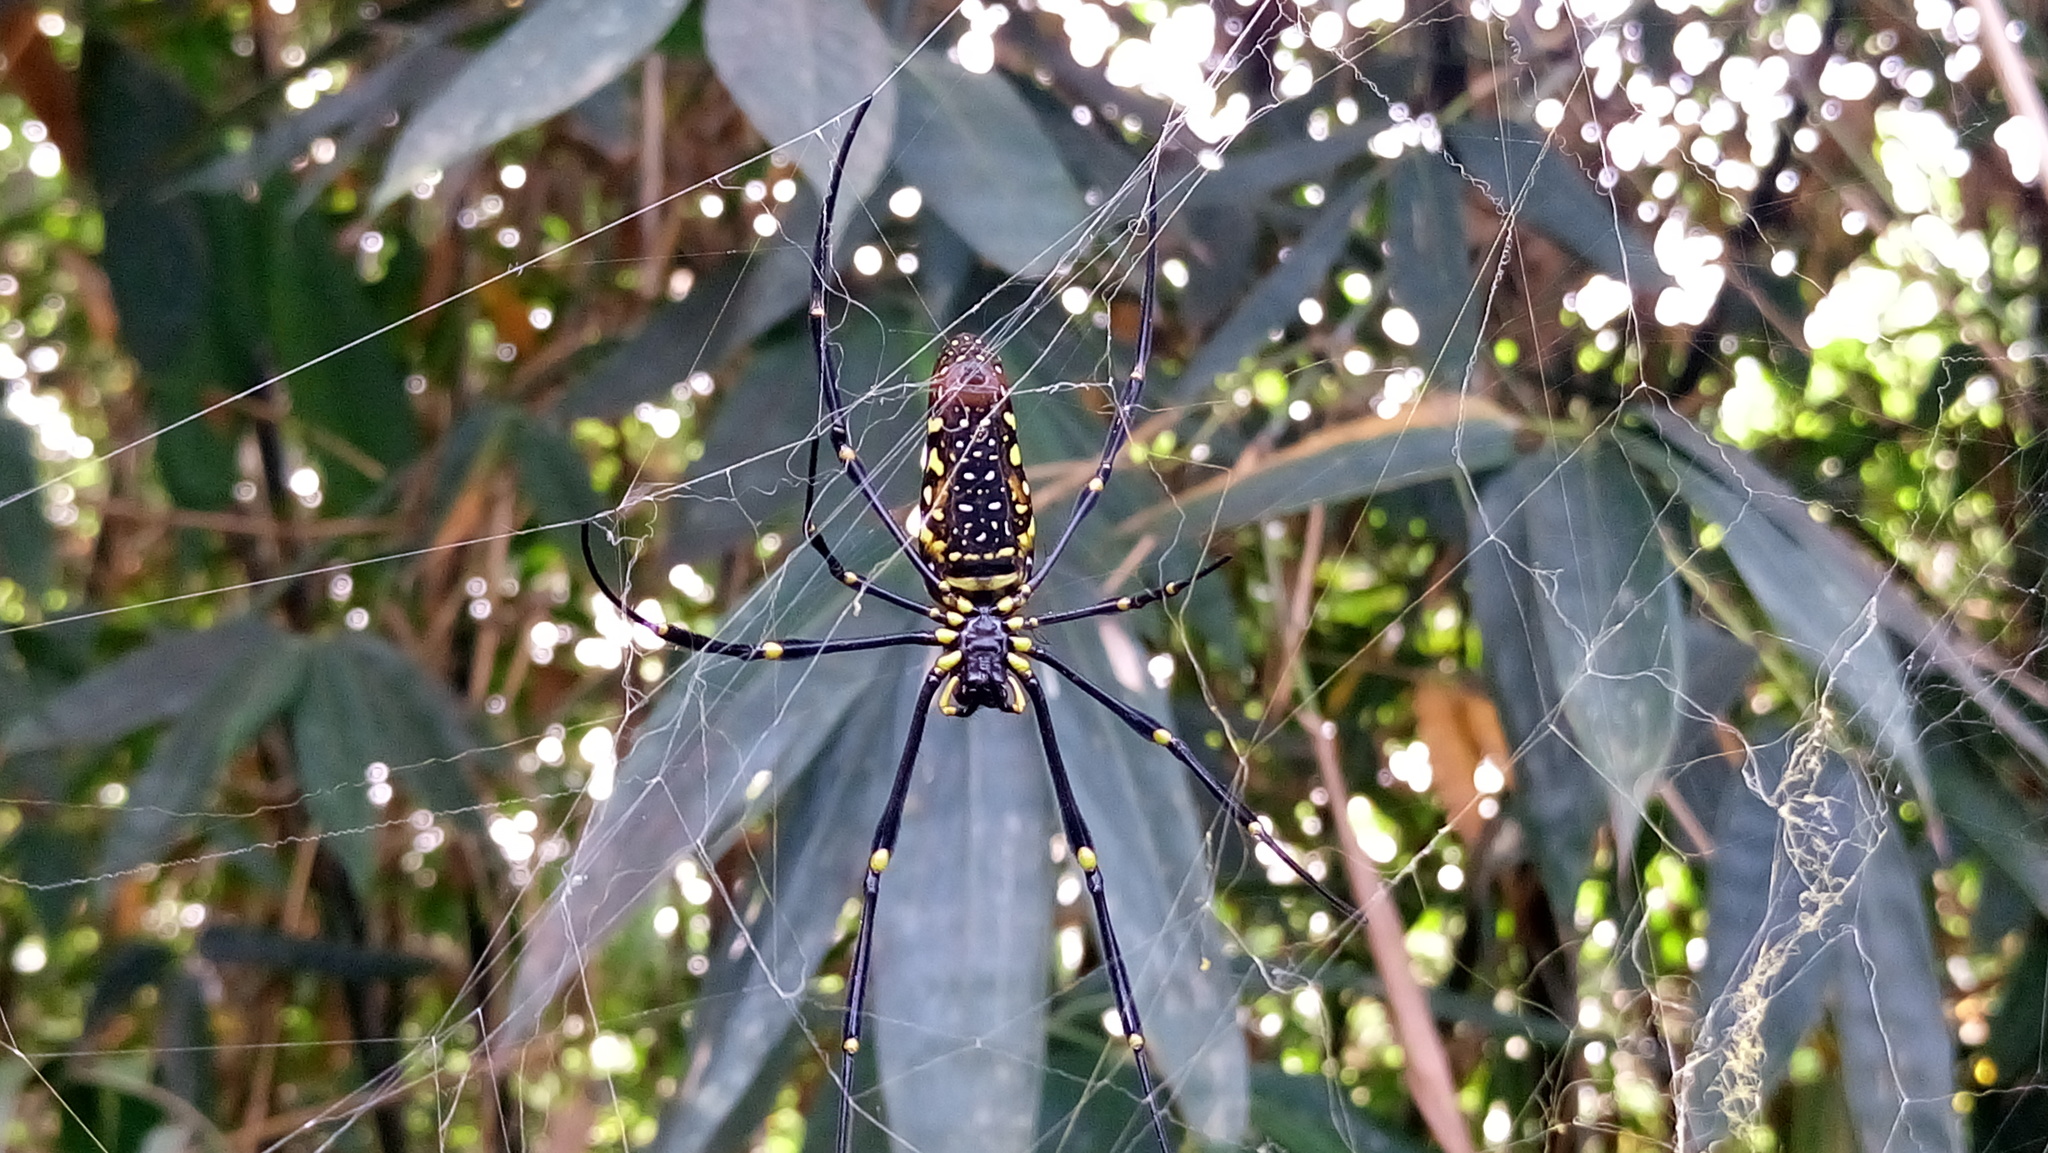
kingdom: Animalia
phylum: Arthropoda
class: Arachnida
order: Araneae
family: Araneidae
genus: Nephila
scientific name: Nephila pilipes
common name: Giant golden orb weaver
